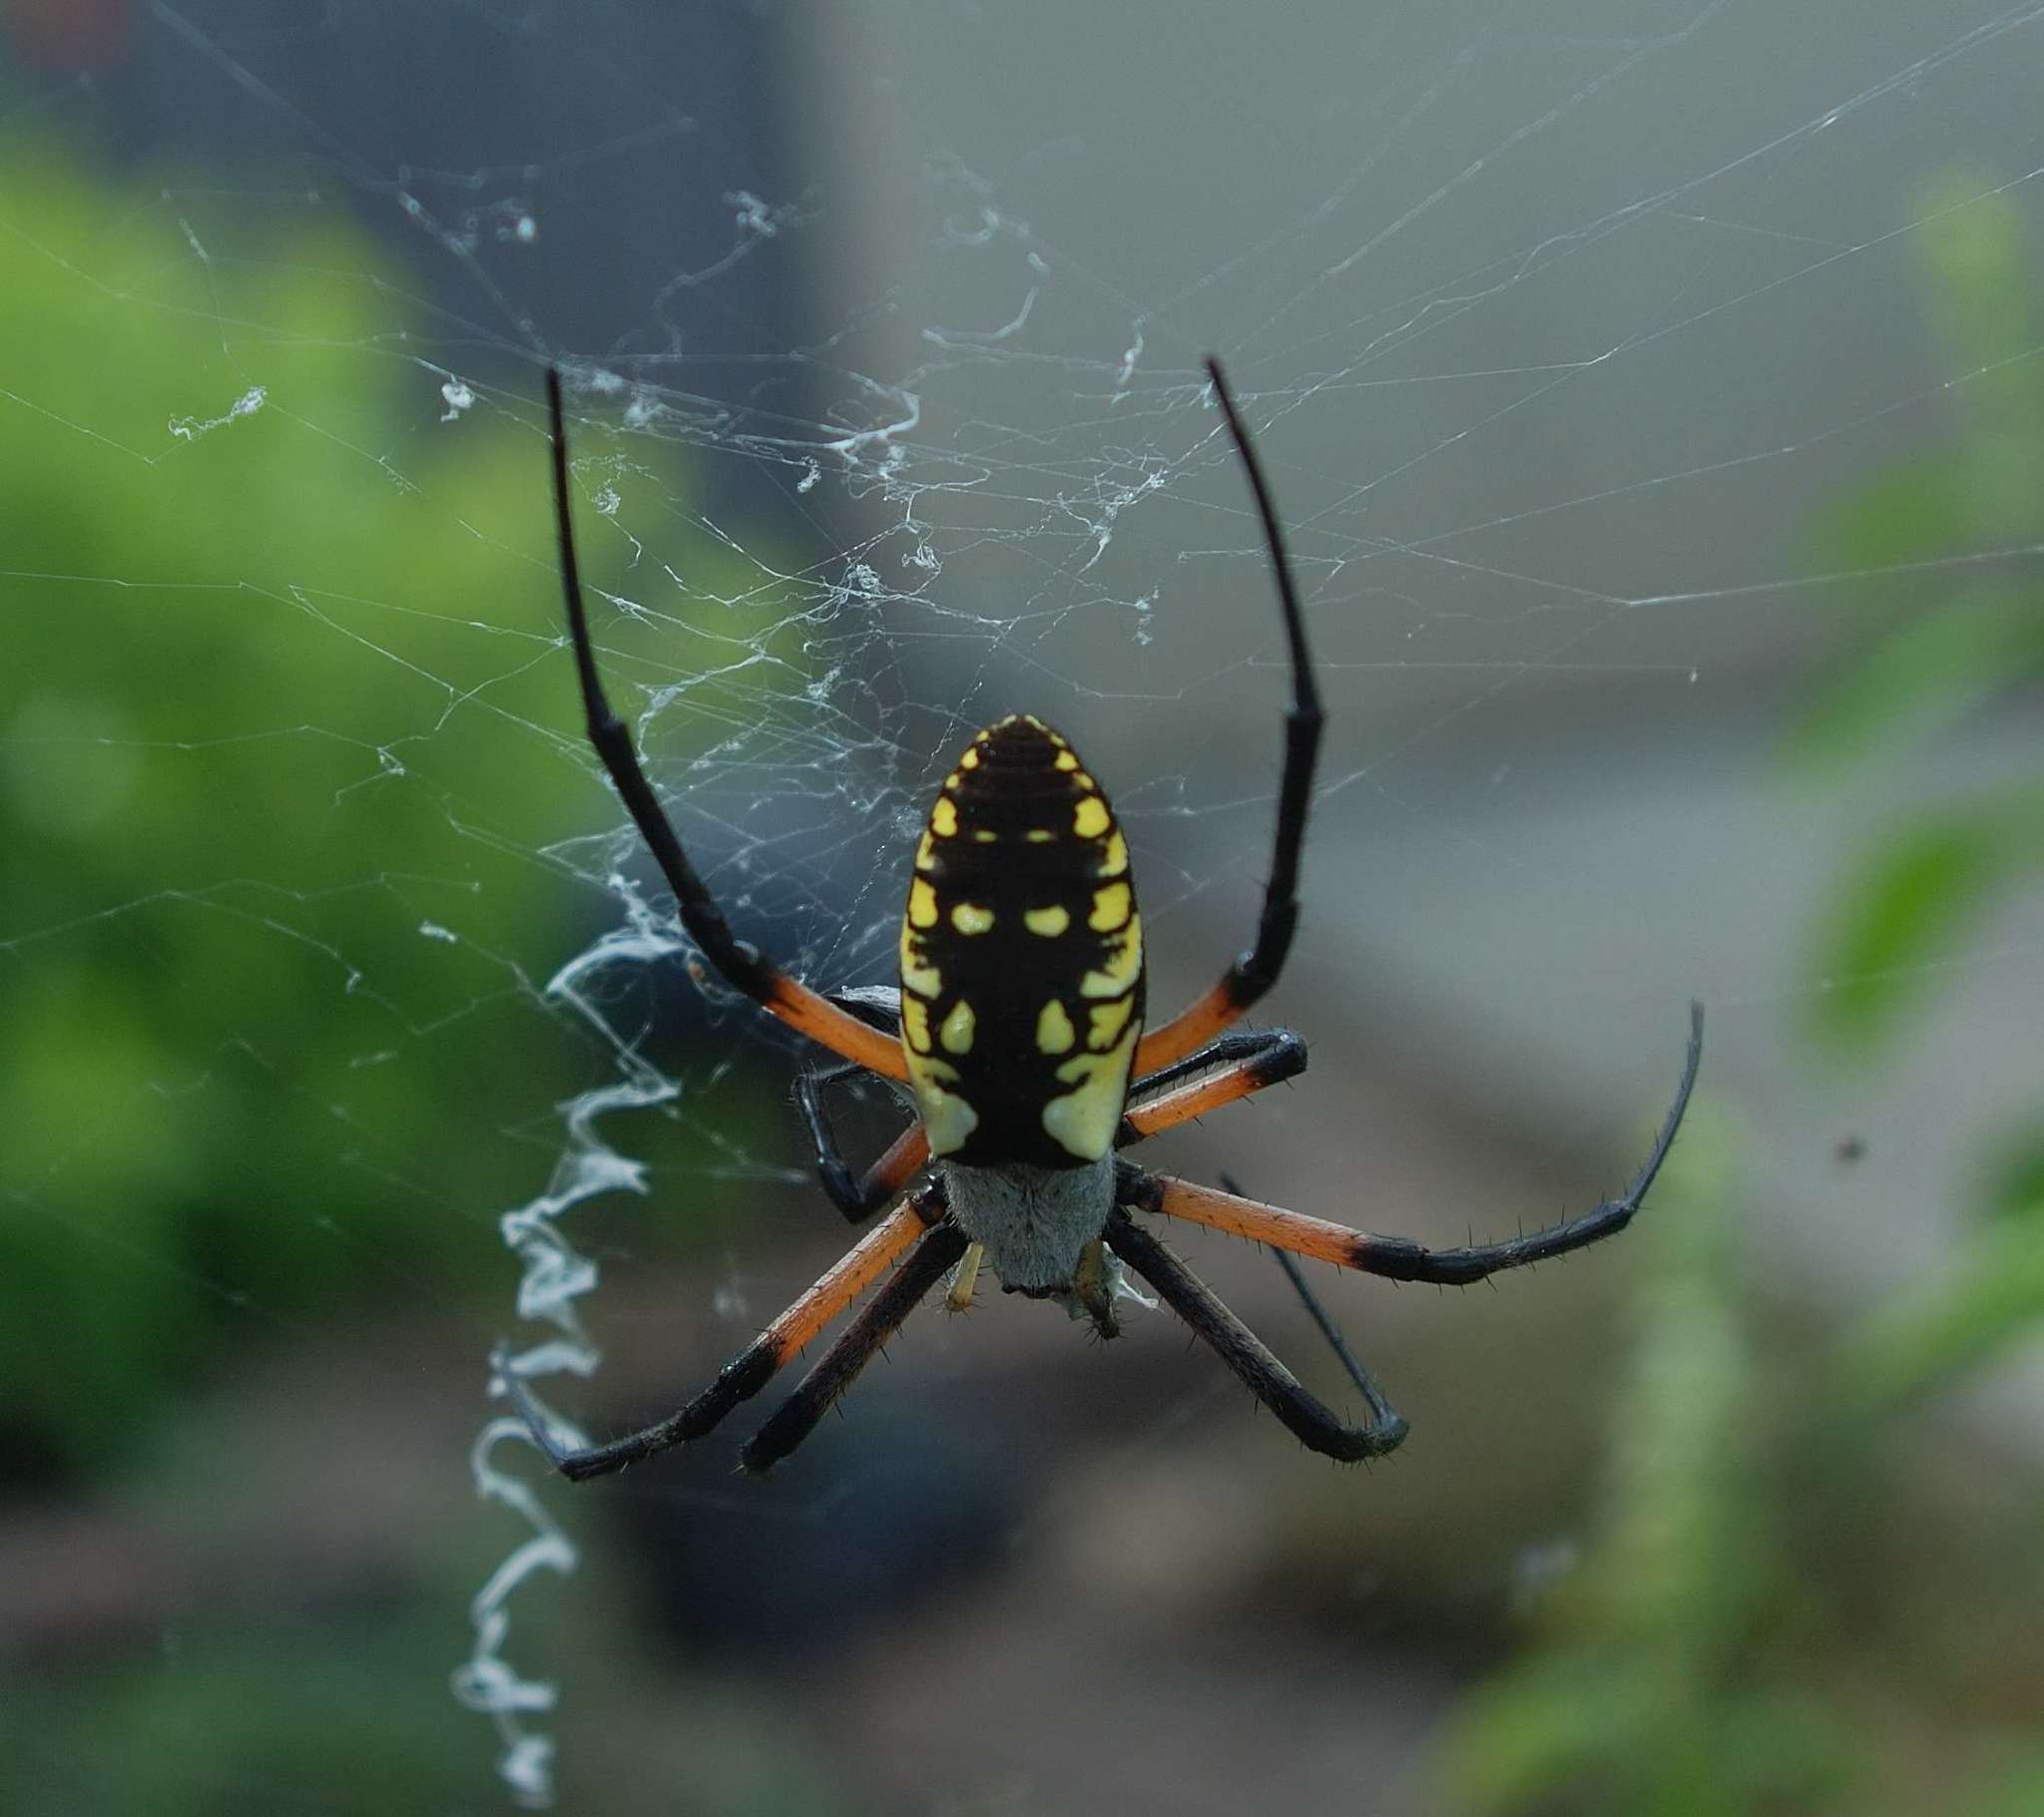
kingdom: Animalia
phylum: Arthropoda
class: Arachnida
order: Araneae
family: Araneidae
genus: Argiope
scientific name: Argiope aurantia
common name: Orb weavers
